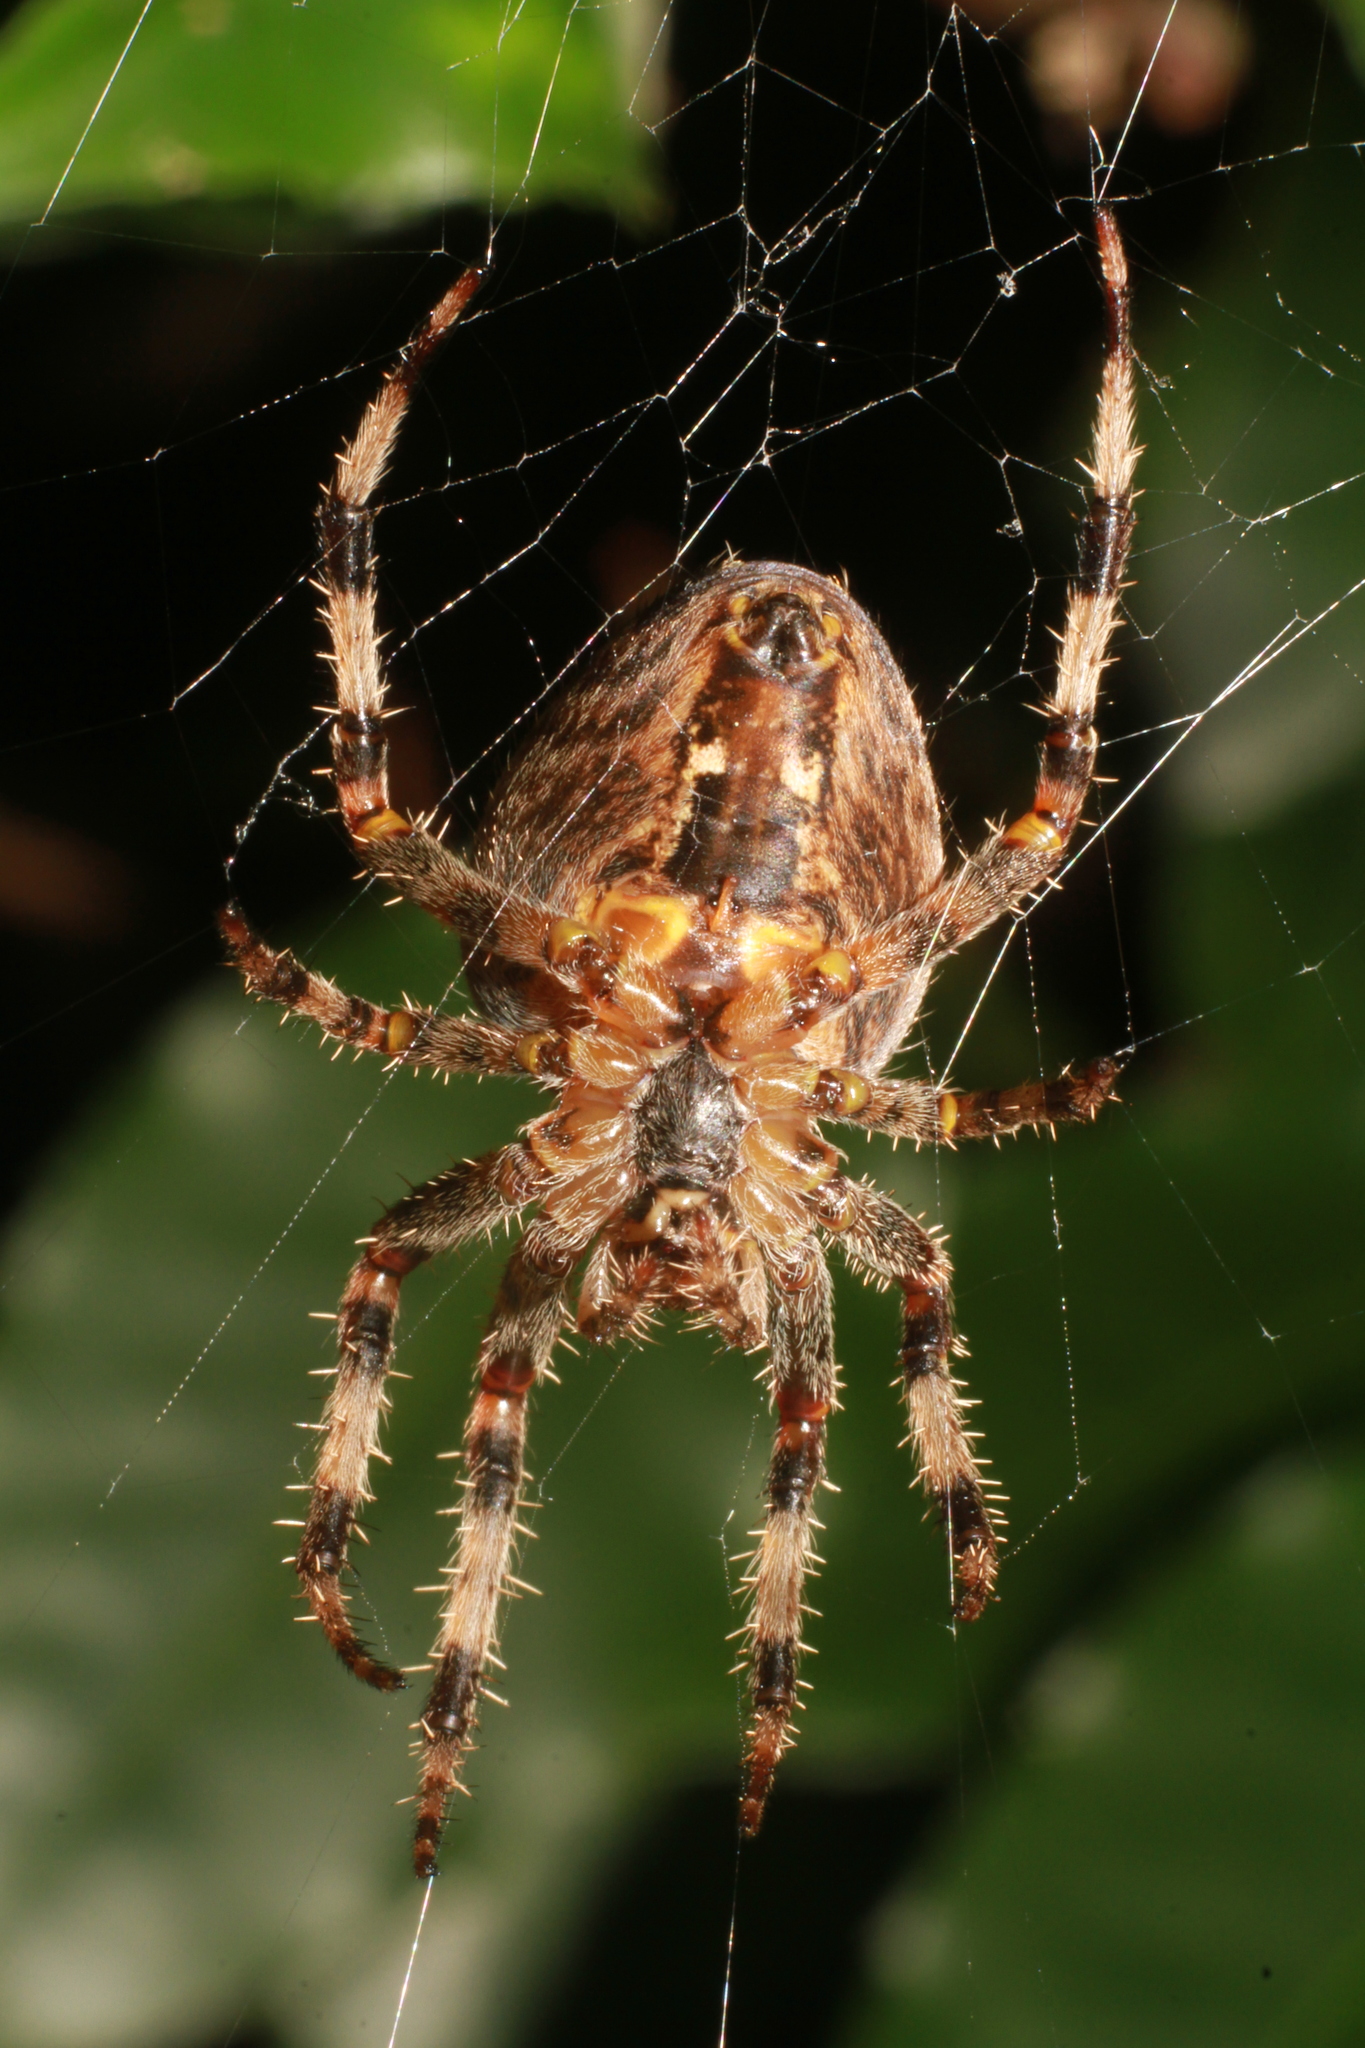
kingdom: Animalia
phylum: Arthropoda
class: Arachnida
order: Araneae
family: Araneidae
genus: Araneus
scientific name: Araneus diadematus
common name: Cross orbweaver
